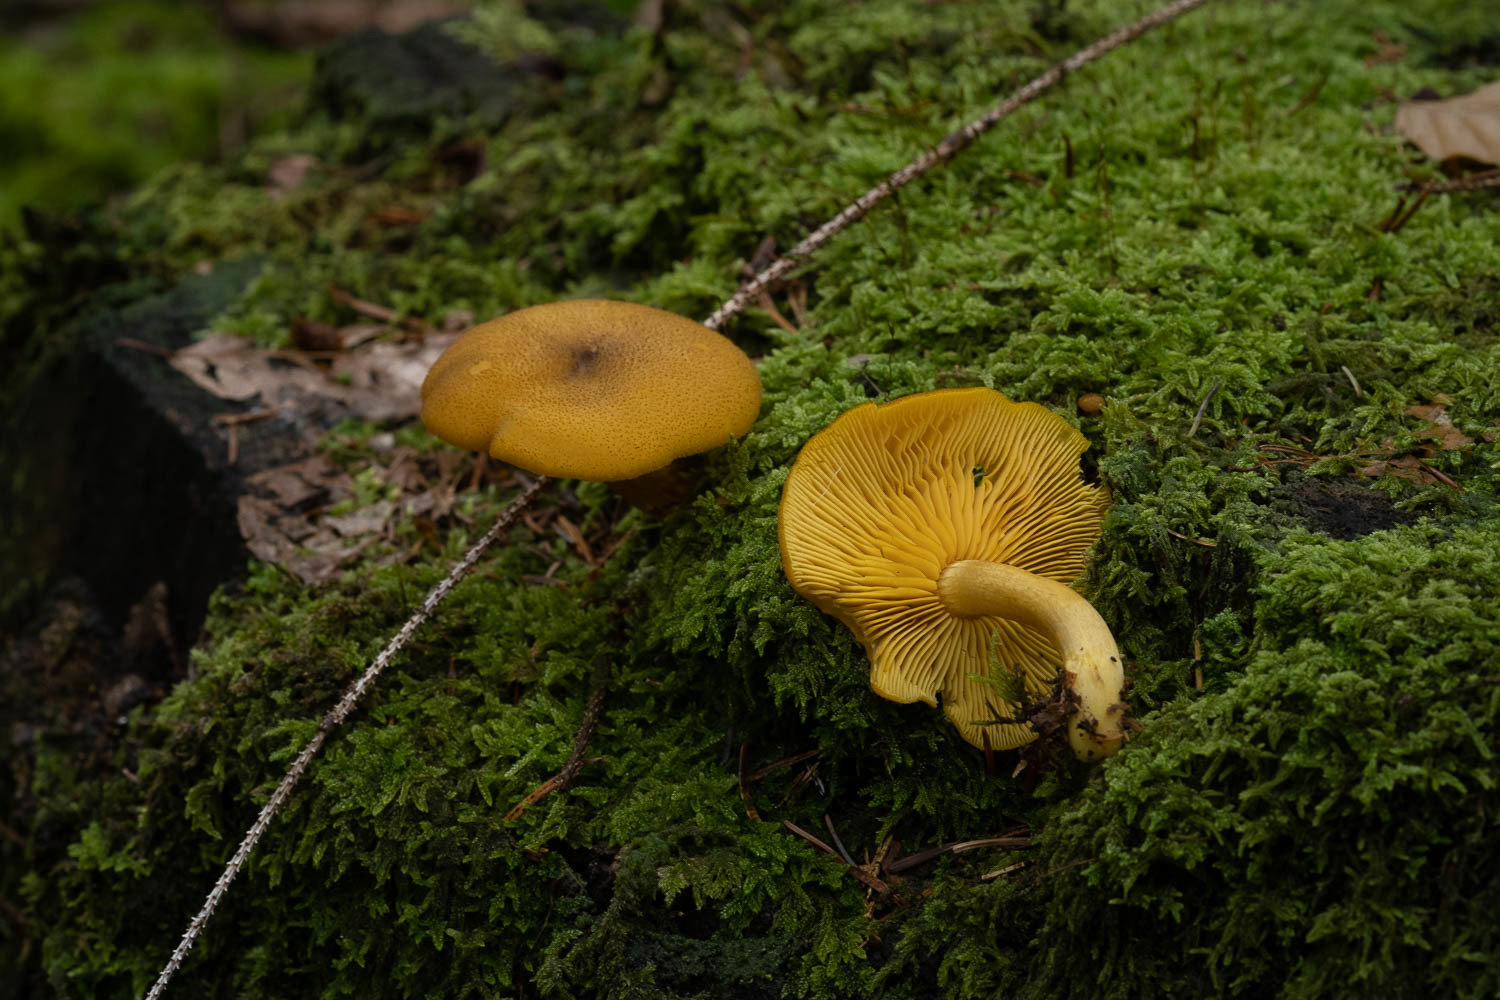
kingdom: Fungi
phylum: Basidiomycota
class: Agaricomycetes
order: Agaricales
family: Tricholomataceae
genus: Tricholomopsis
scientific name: Tricholomopsis decora
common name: Prunes and custard
